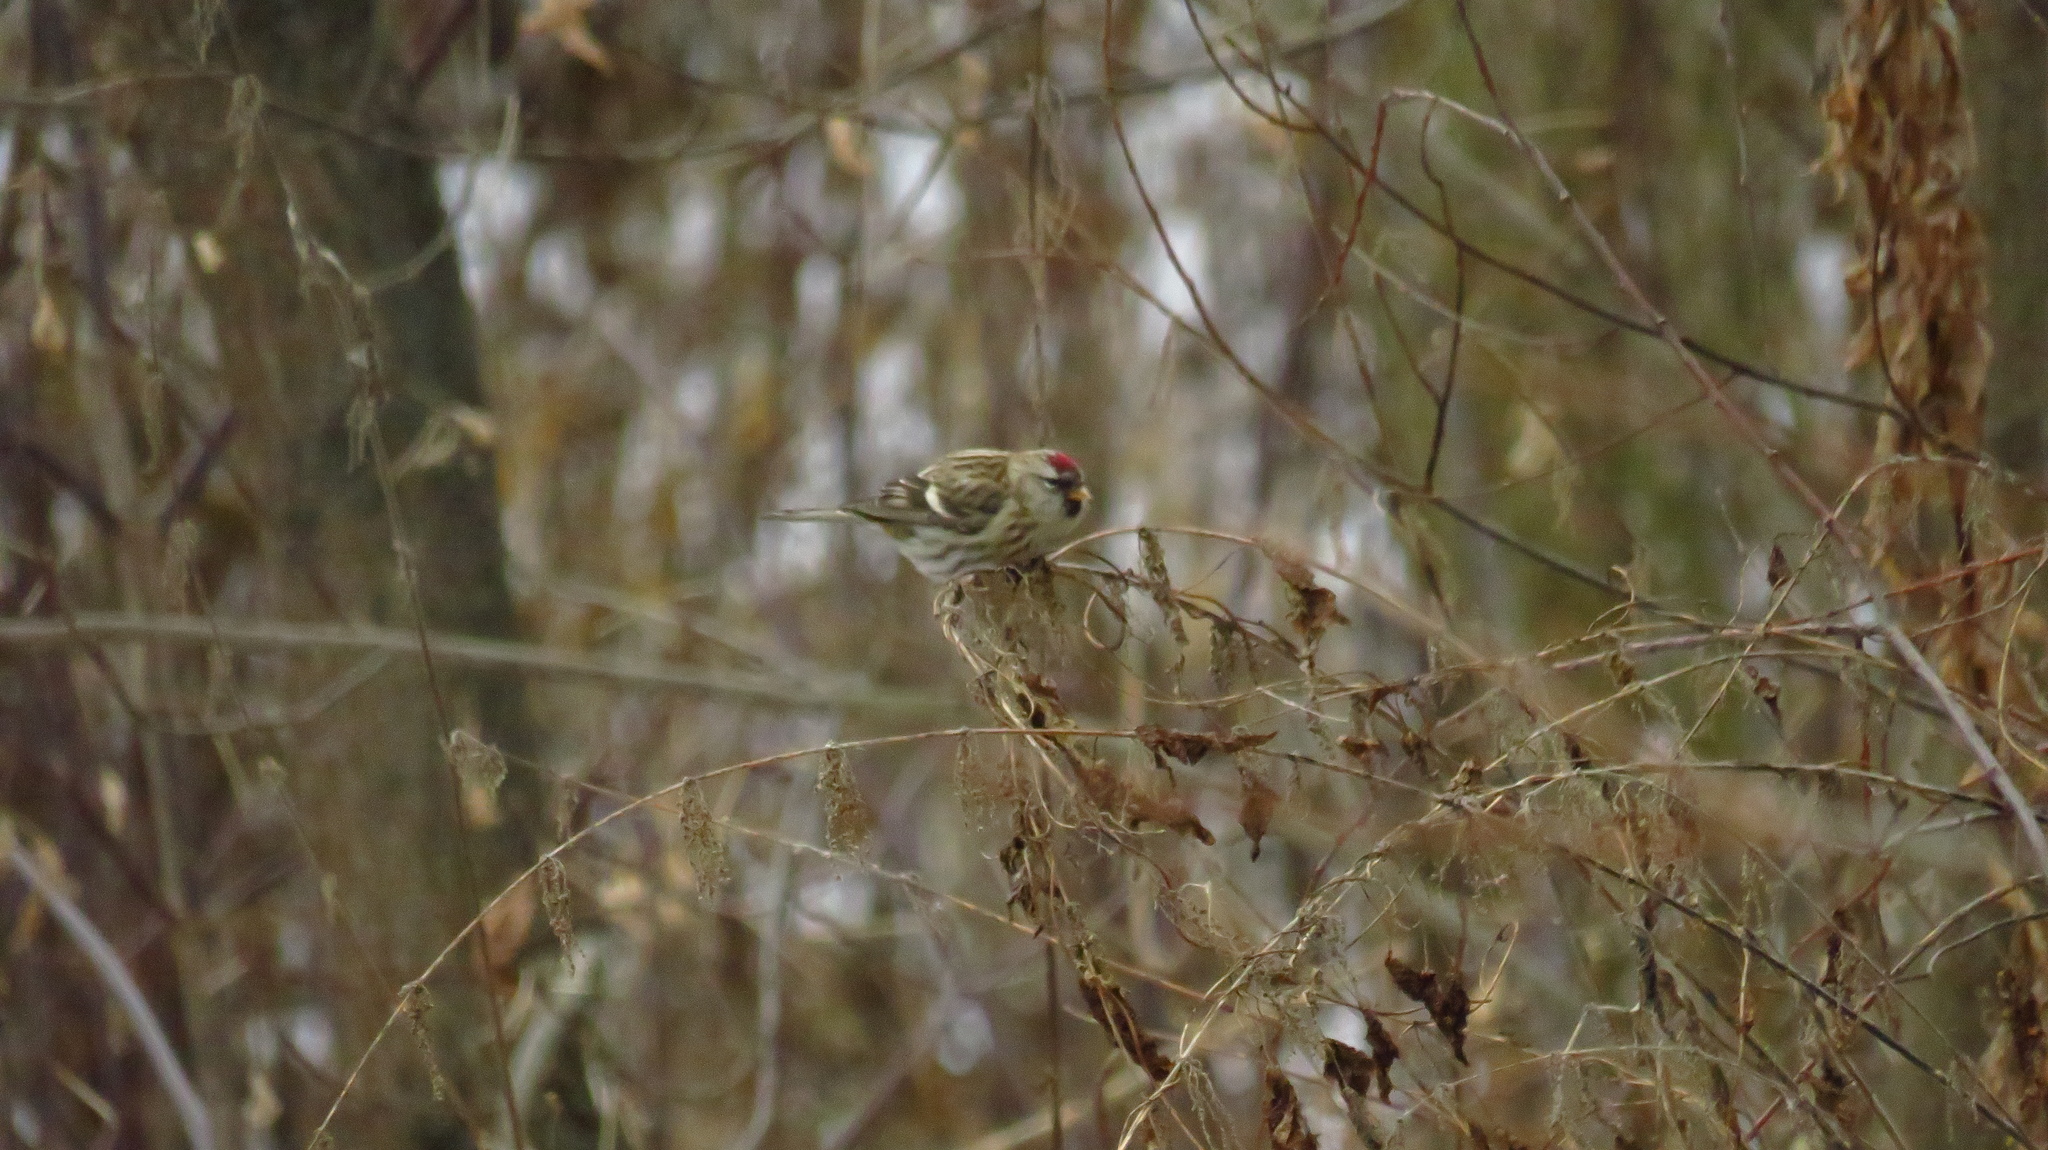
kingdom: Animalia
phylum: Chordata
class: Aves
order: Passeriformes
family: Fringillidae
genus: Acanthis
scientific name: Acanthis flammea
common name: Common redpoll
